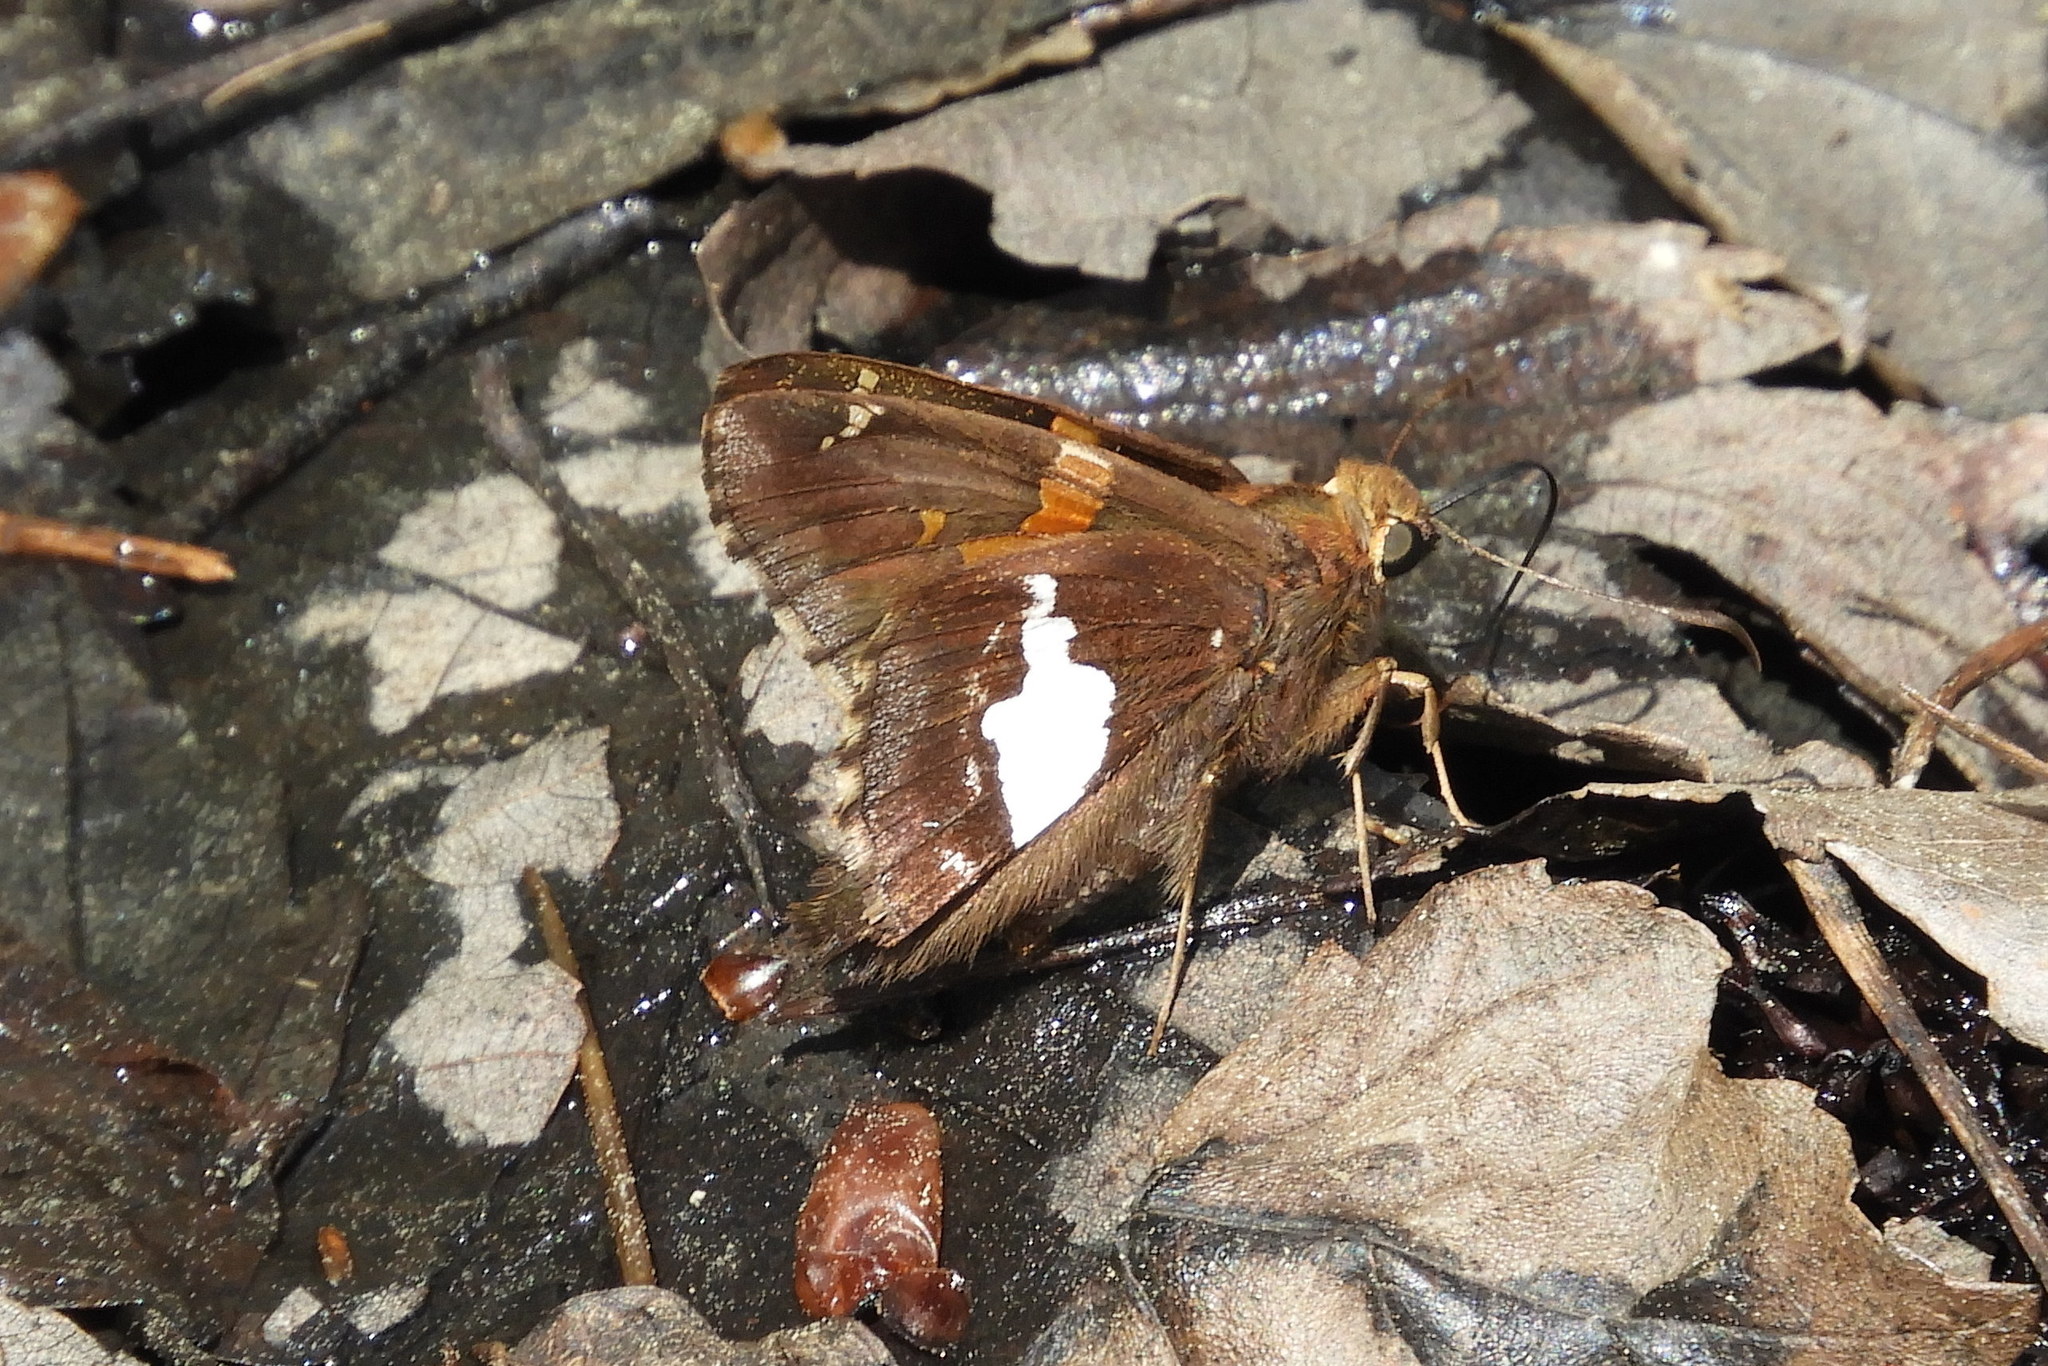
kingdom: Animalia
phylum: Arthropoda
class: Insecta
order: Lepidoptera
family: Hesperiidae
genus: Epargyreus
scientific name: Epargyreus clarus
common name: Silver-spotted skipper
